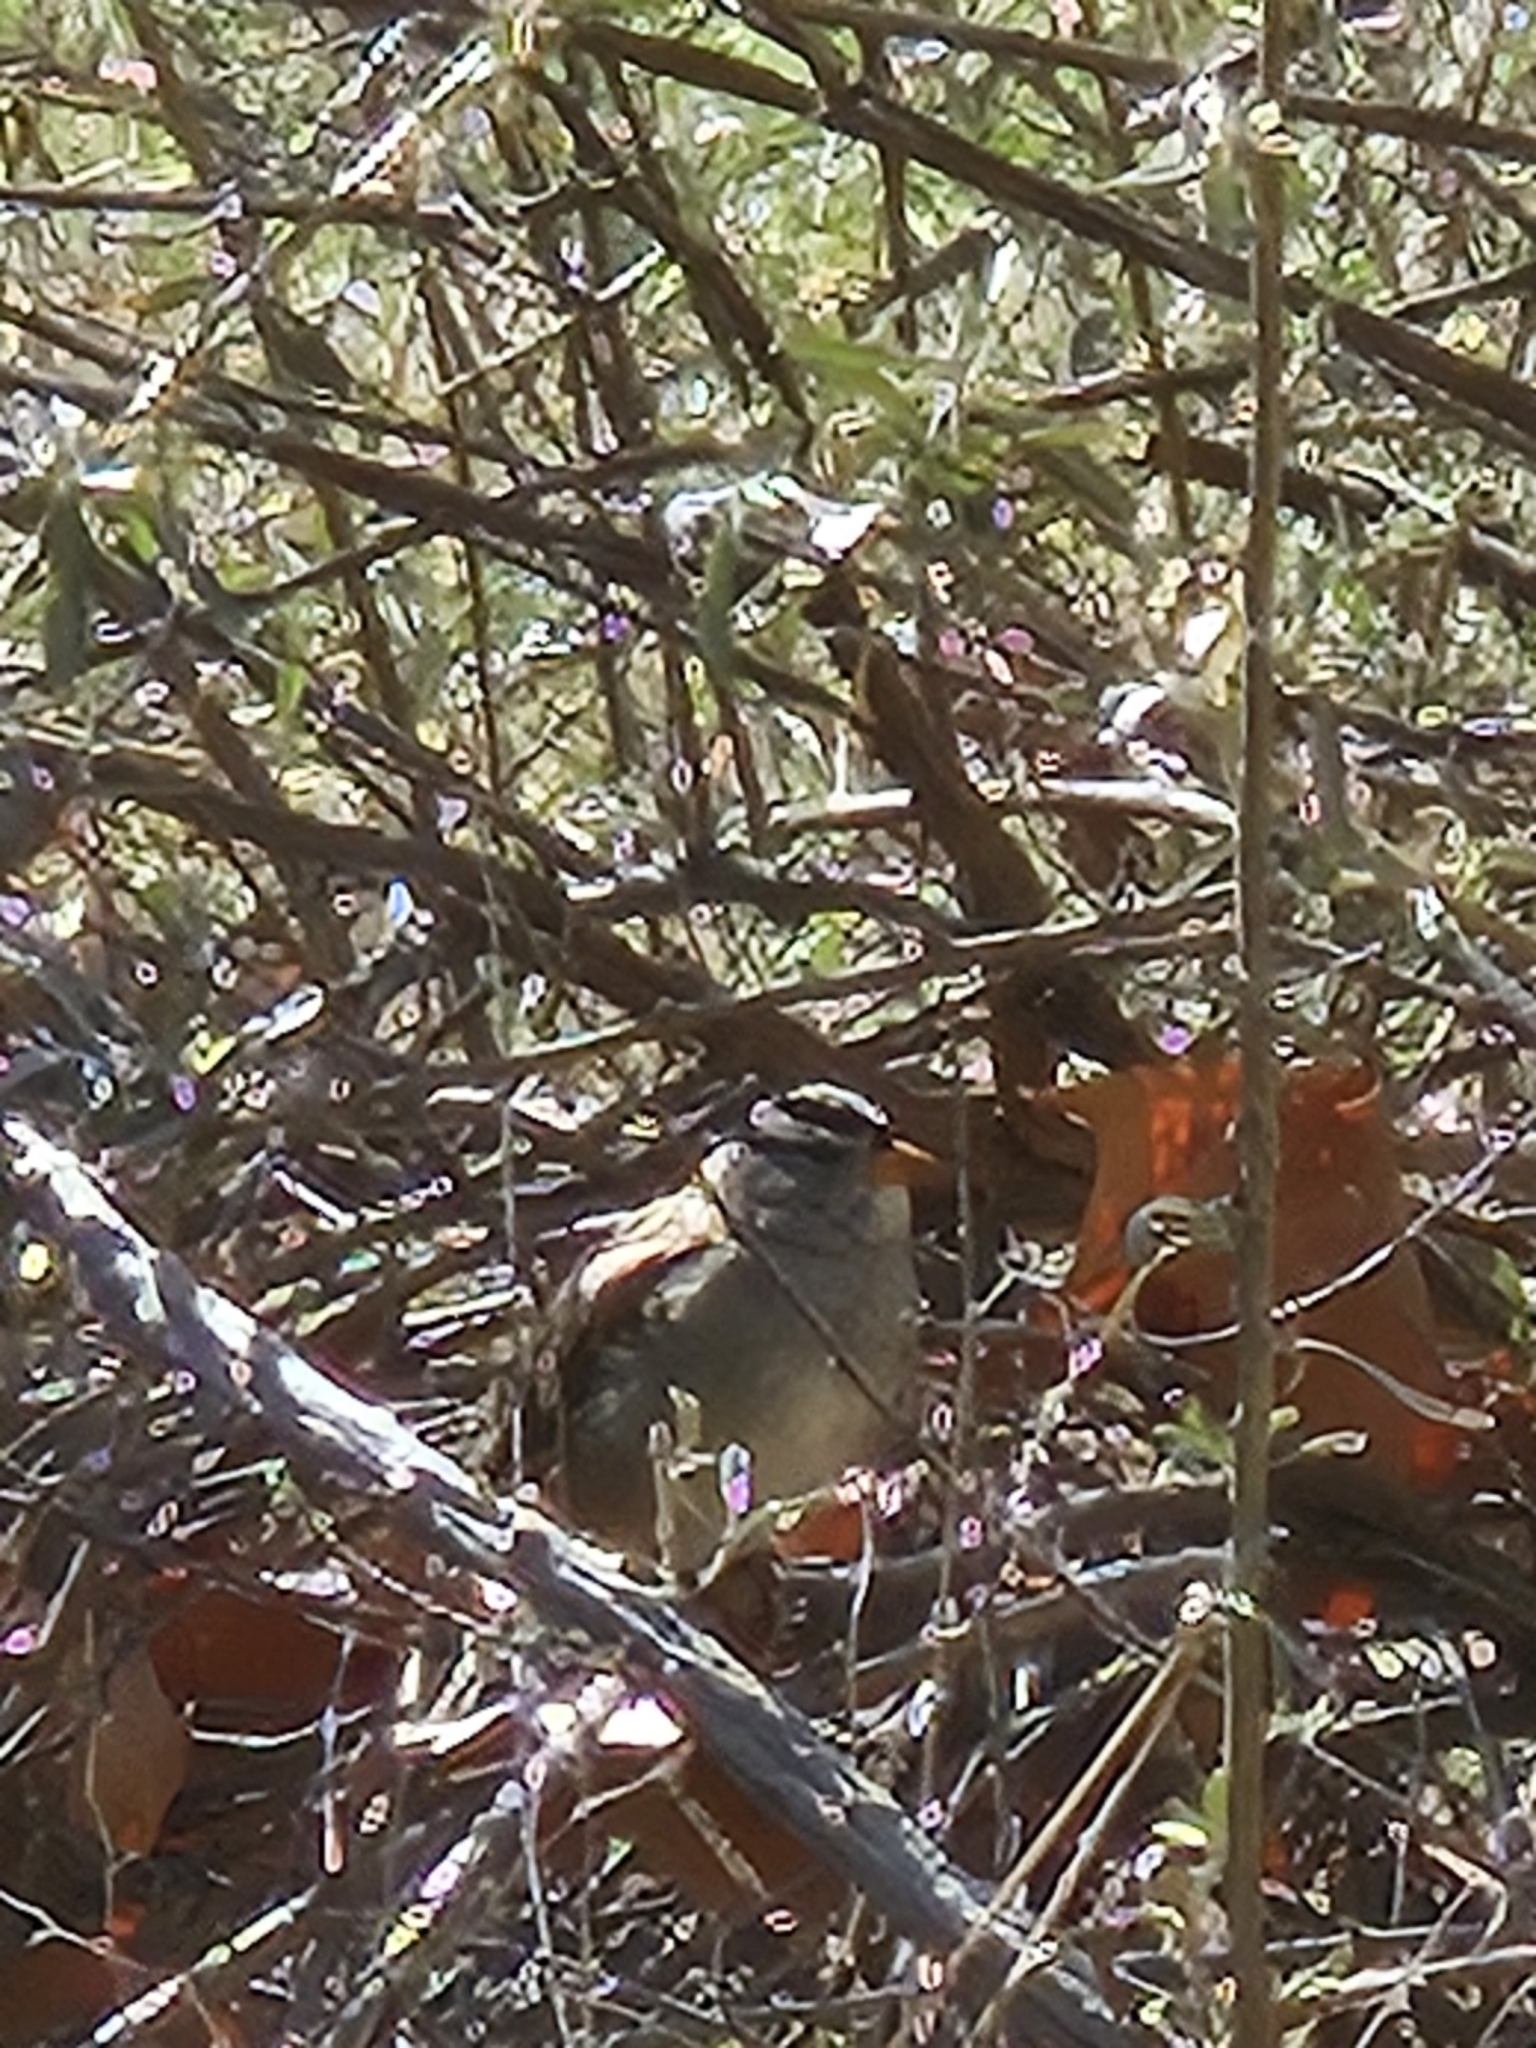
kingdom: Animalia
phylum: Chordata
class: Aves
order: Passeriformes
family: Passerellidae
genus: Zonotrichia
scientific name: Zonotrichia leucophrys
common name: White-crowned sparrow
